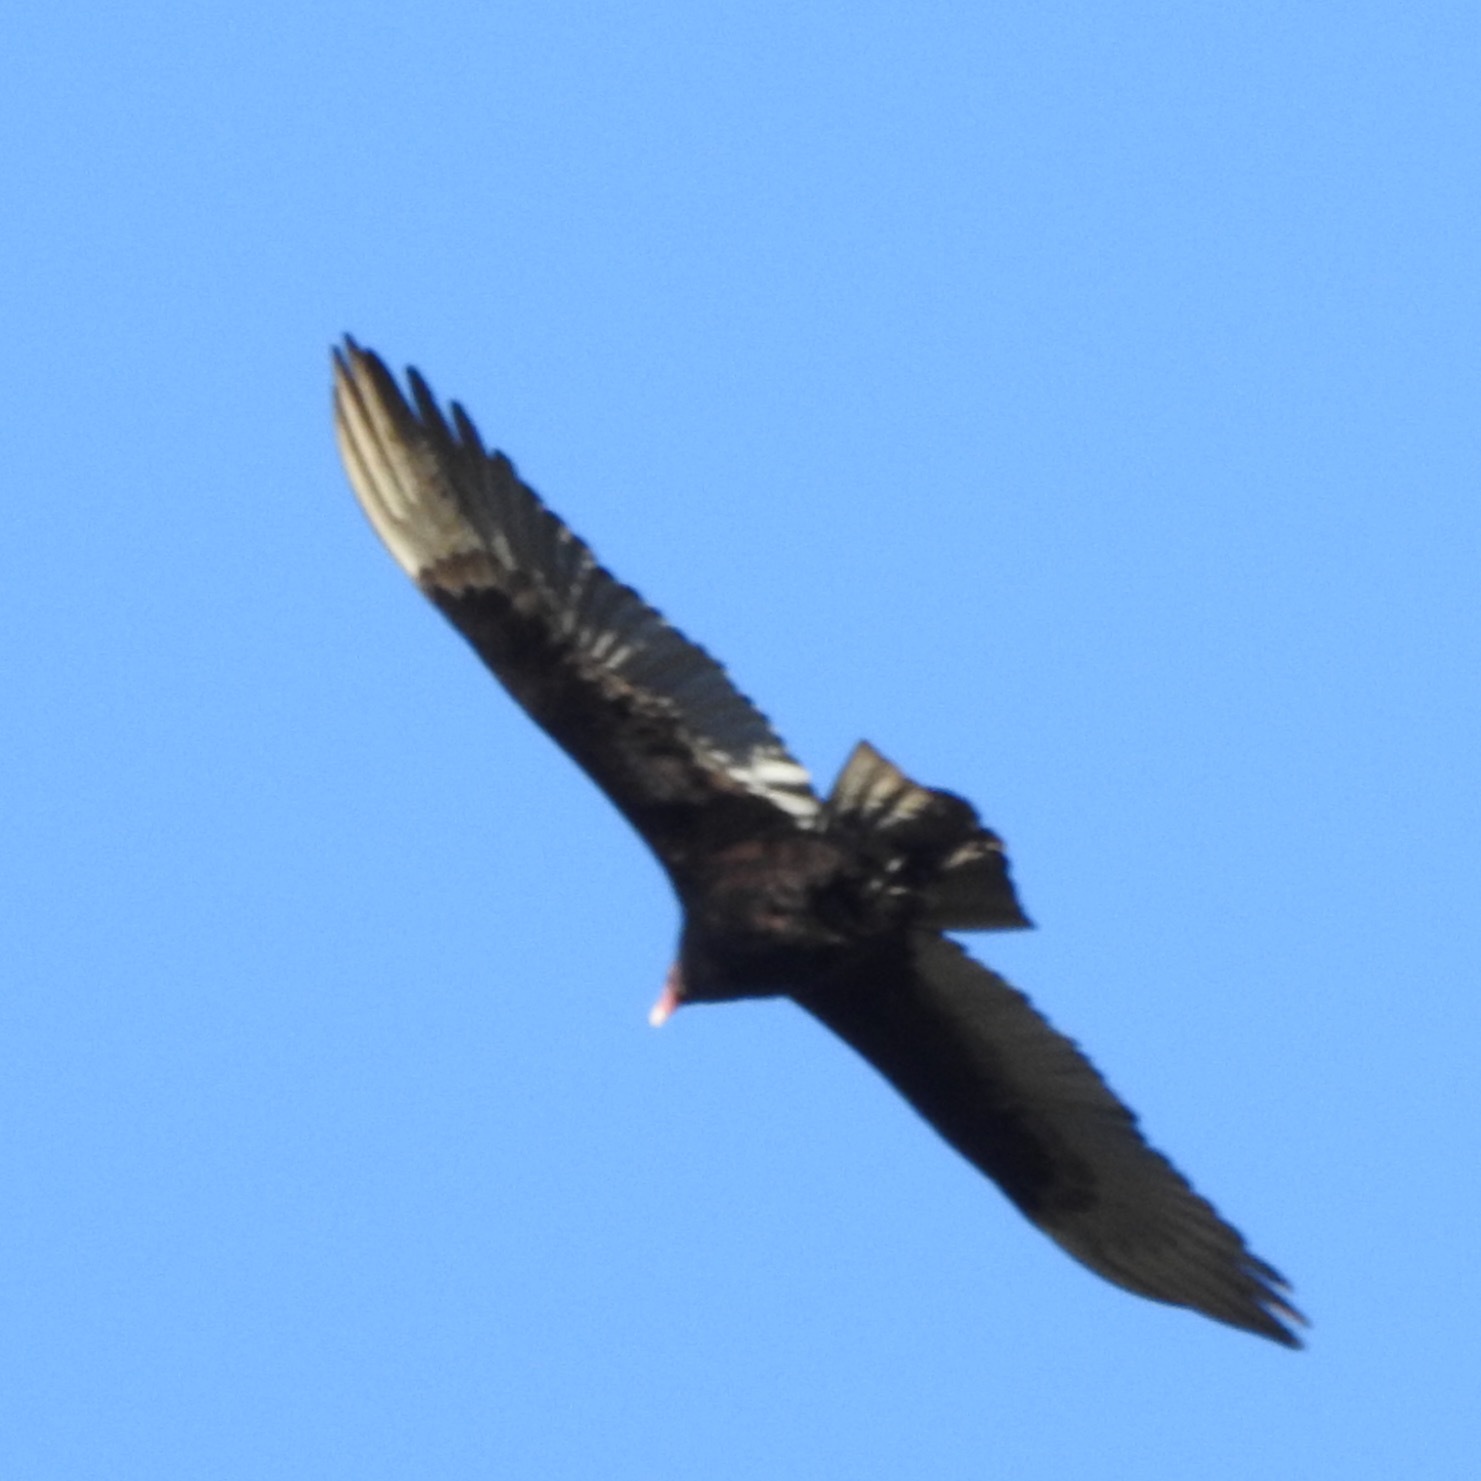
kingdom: Animalia
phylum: Chordata
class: Aves
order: Accipitriformes
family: Cathartidae
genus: Cathartes
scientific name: Cathartes aura
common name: Turkey vulture
